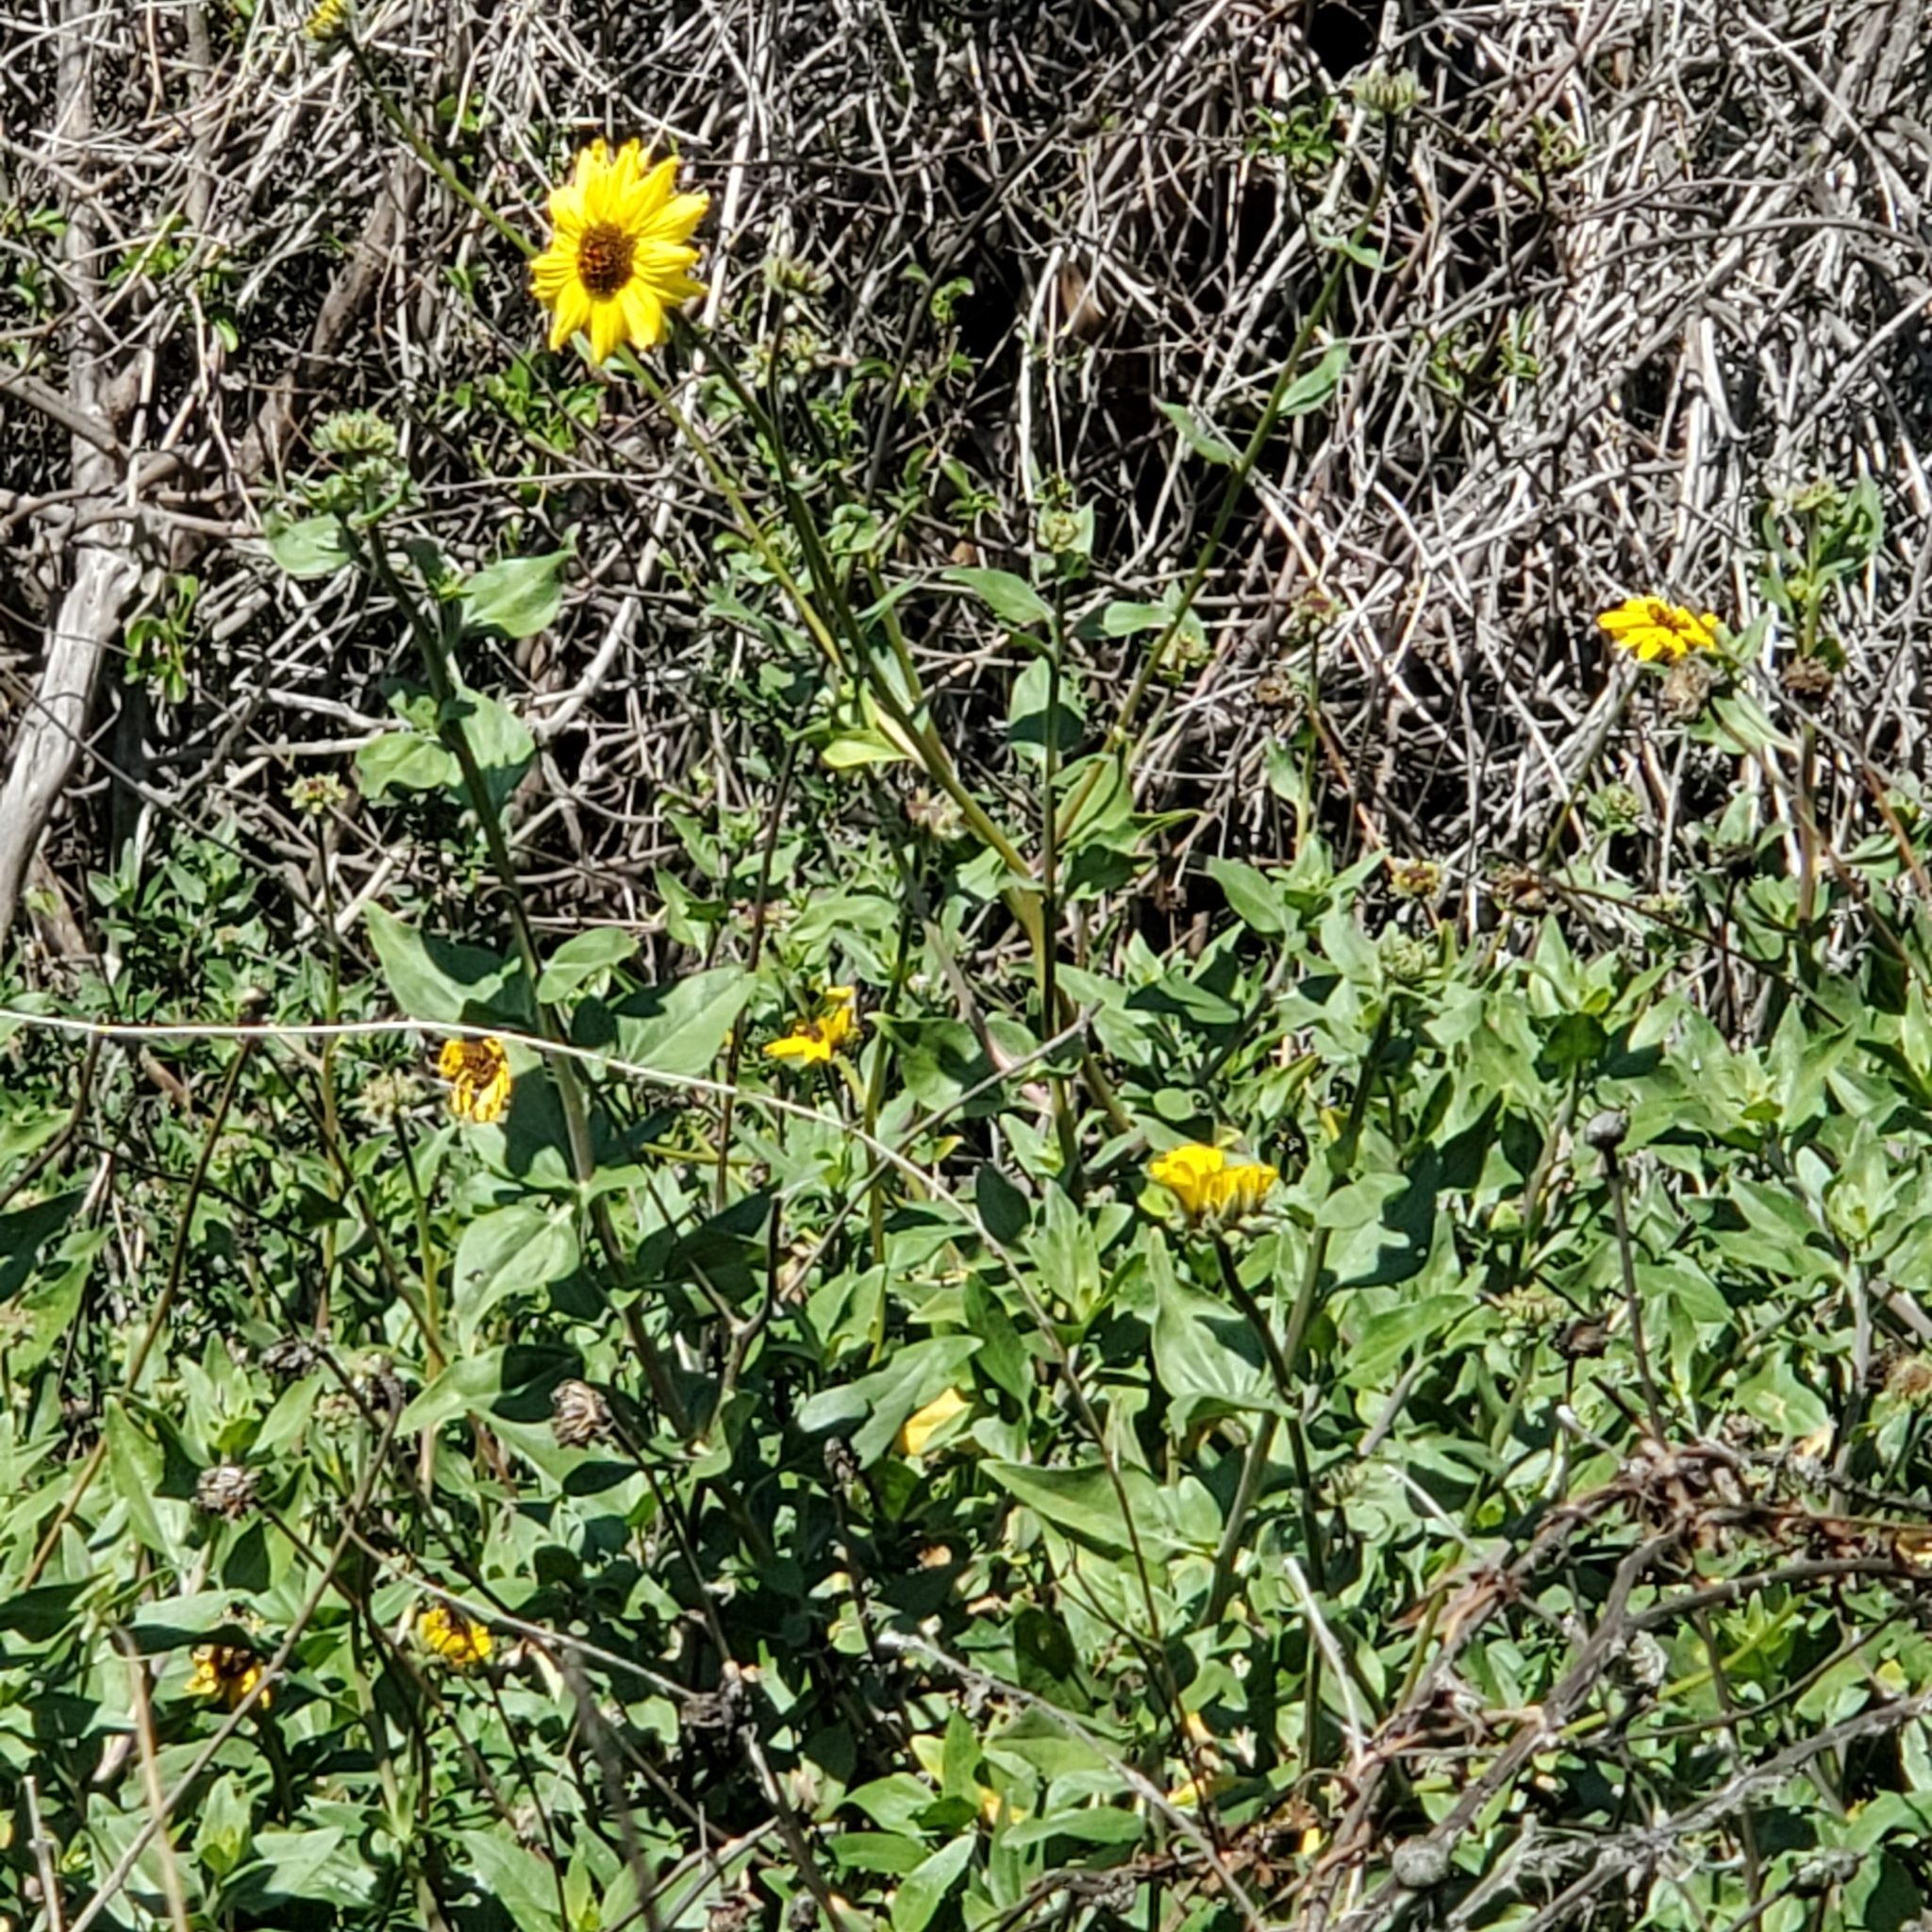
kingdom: Plantae
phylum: Tracheophyta
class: Magnoliopsida
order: Asterales
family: Asteraceae
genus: Encelia
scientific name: Encelia californica
